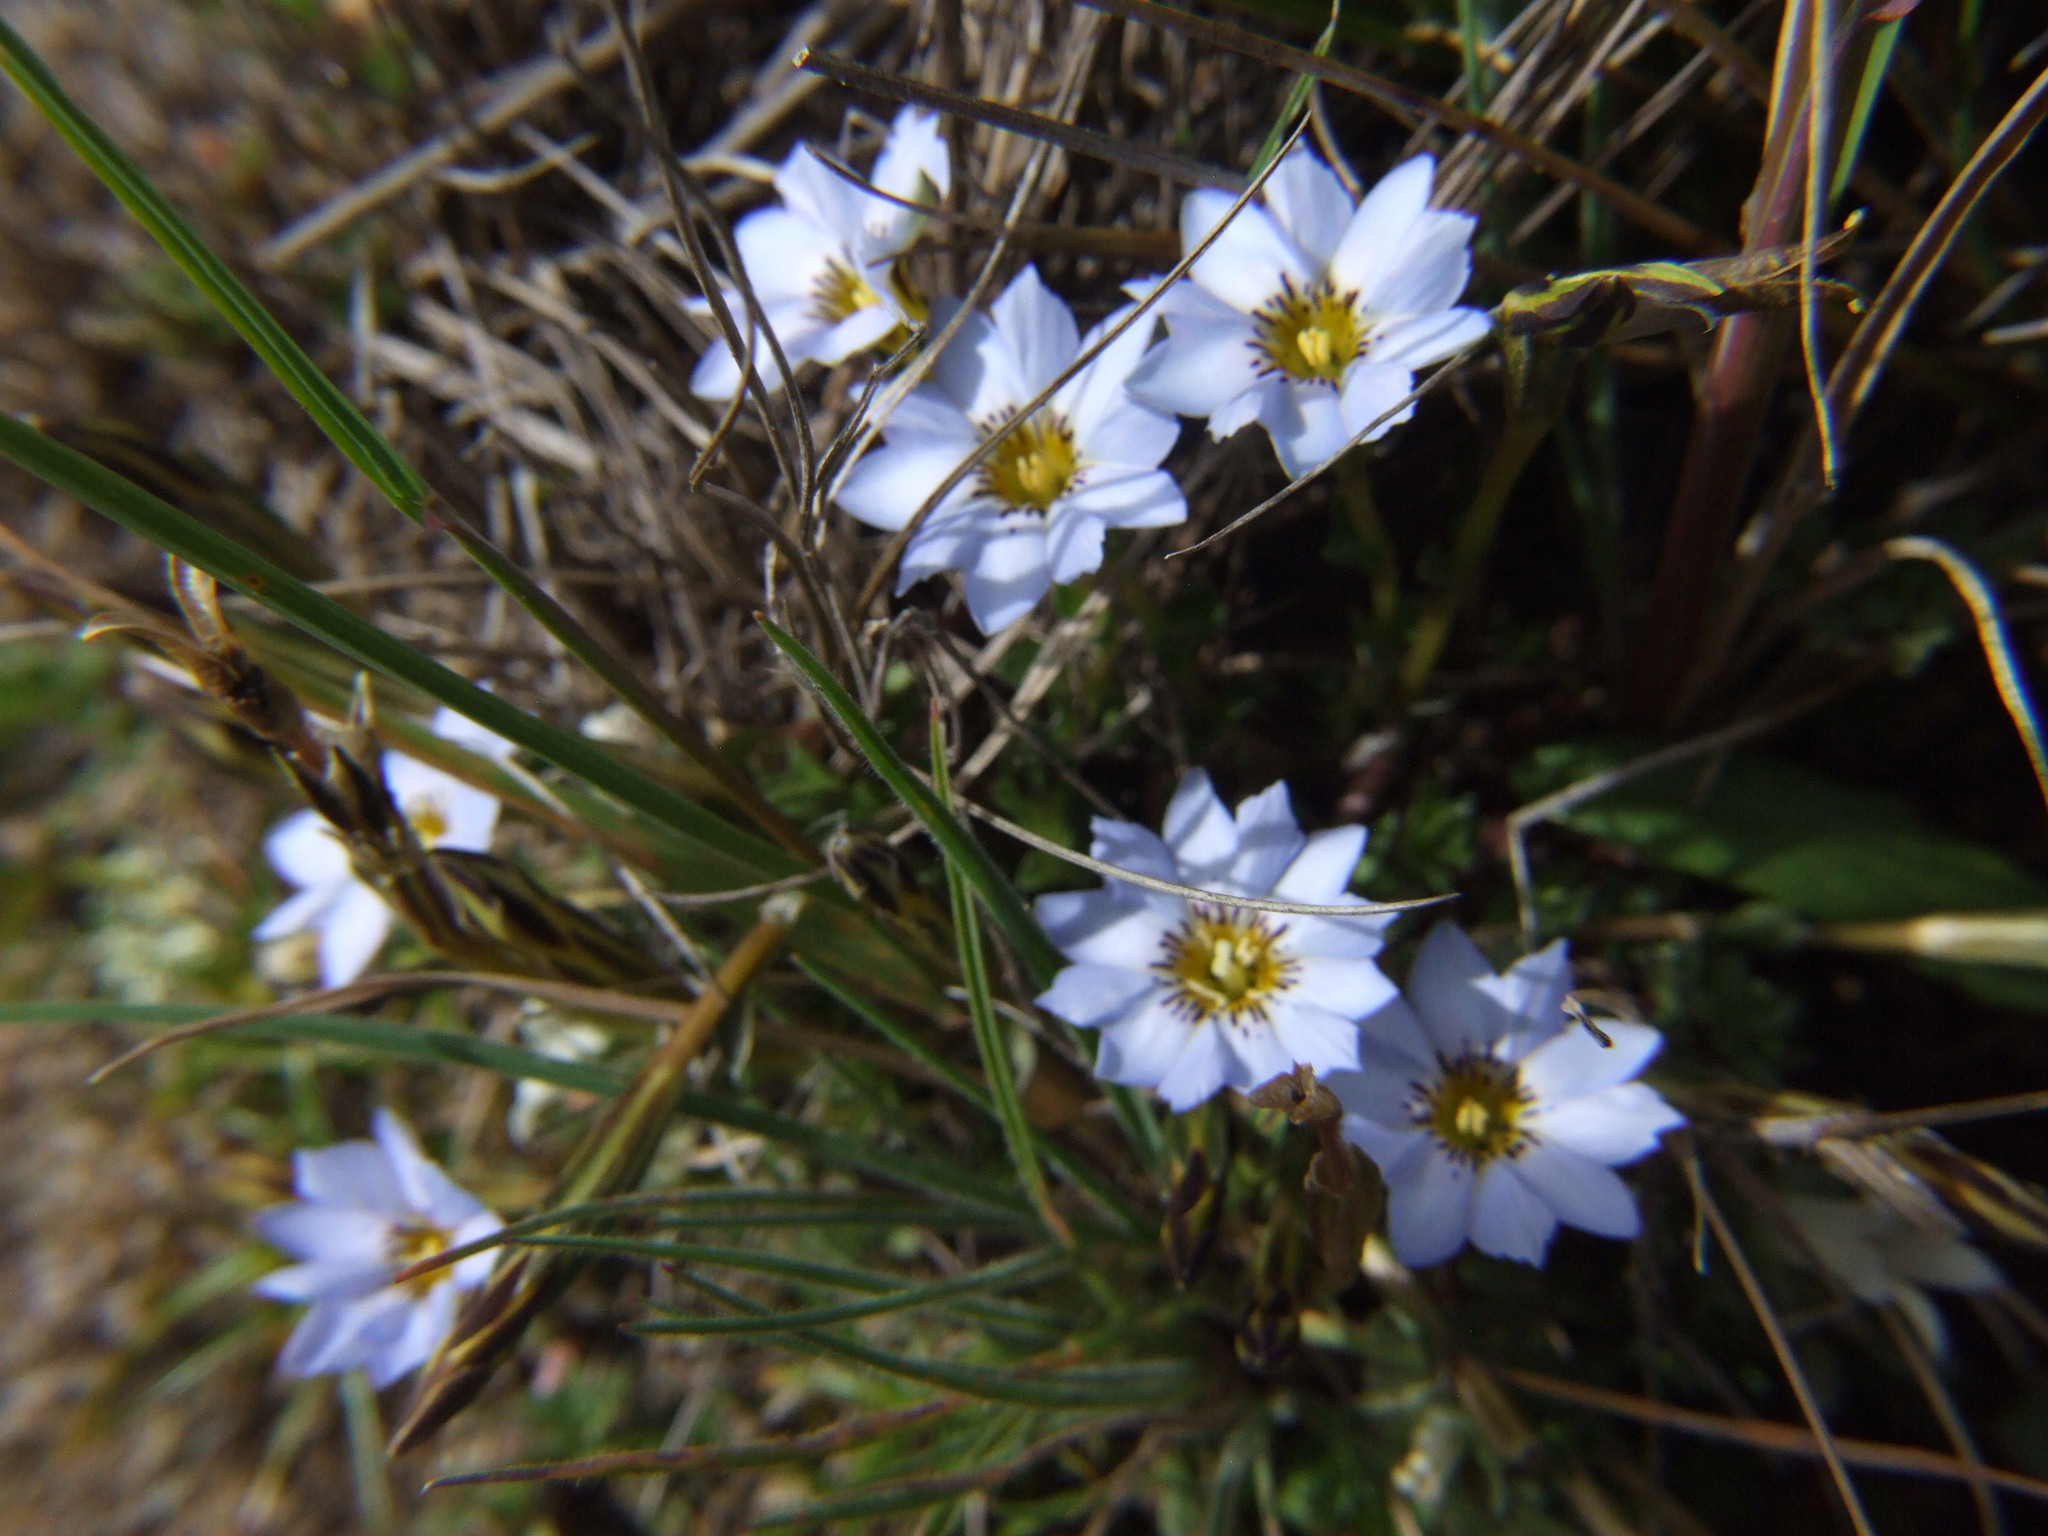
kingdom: Plantae
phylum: Tracheophyta
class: Magnoliopsida
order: Gentianales
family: Gentianaceae
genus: Gentiana
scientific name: Gentiana sedifolia
